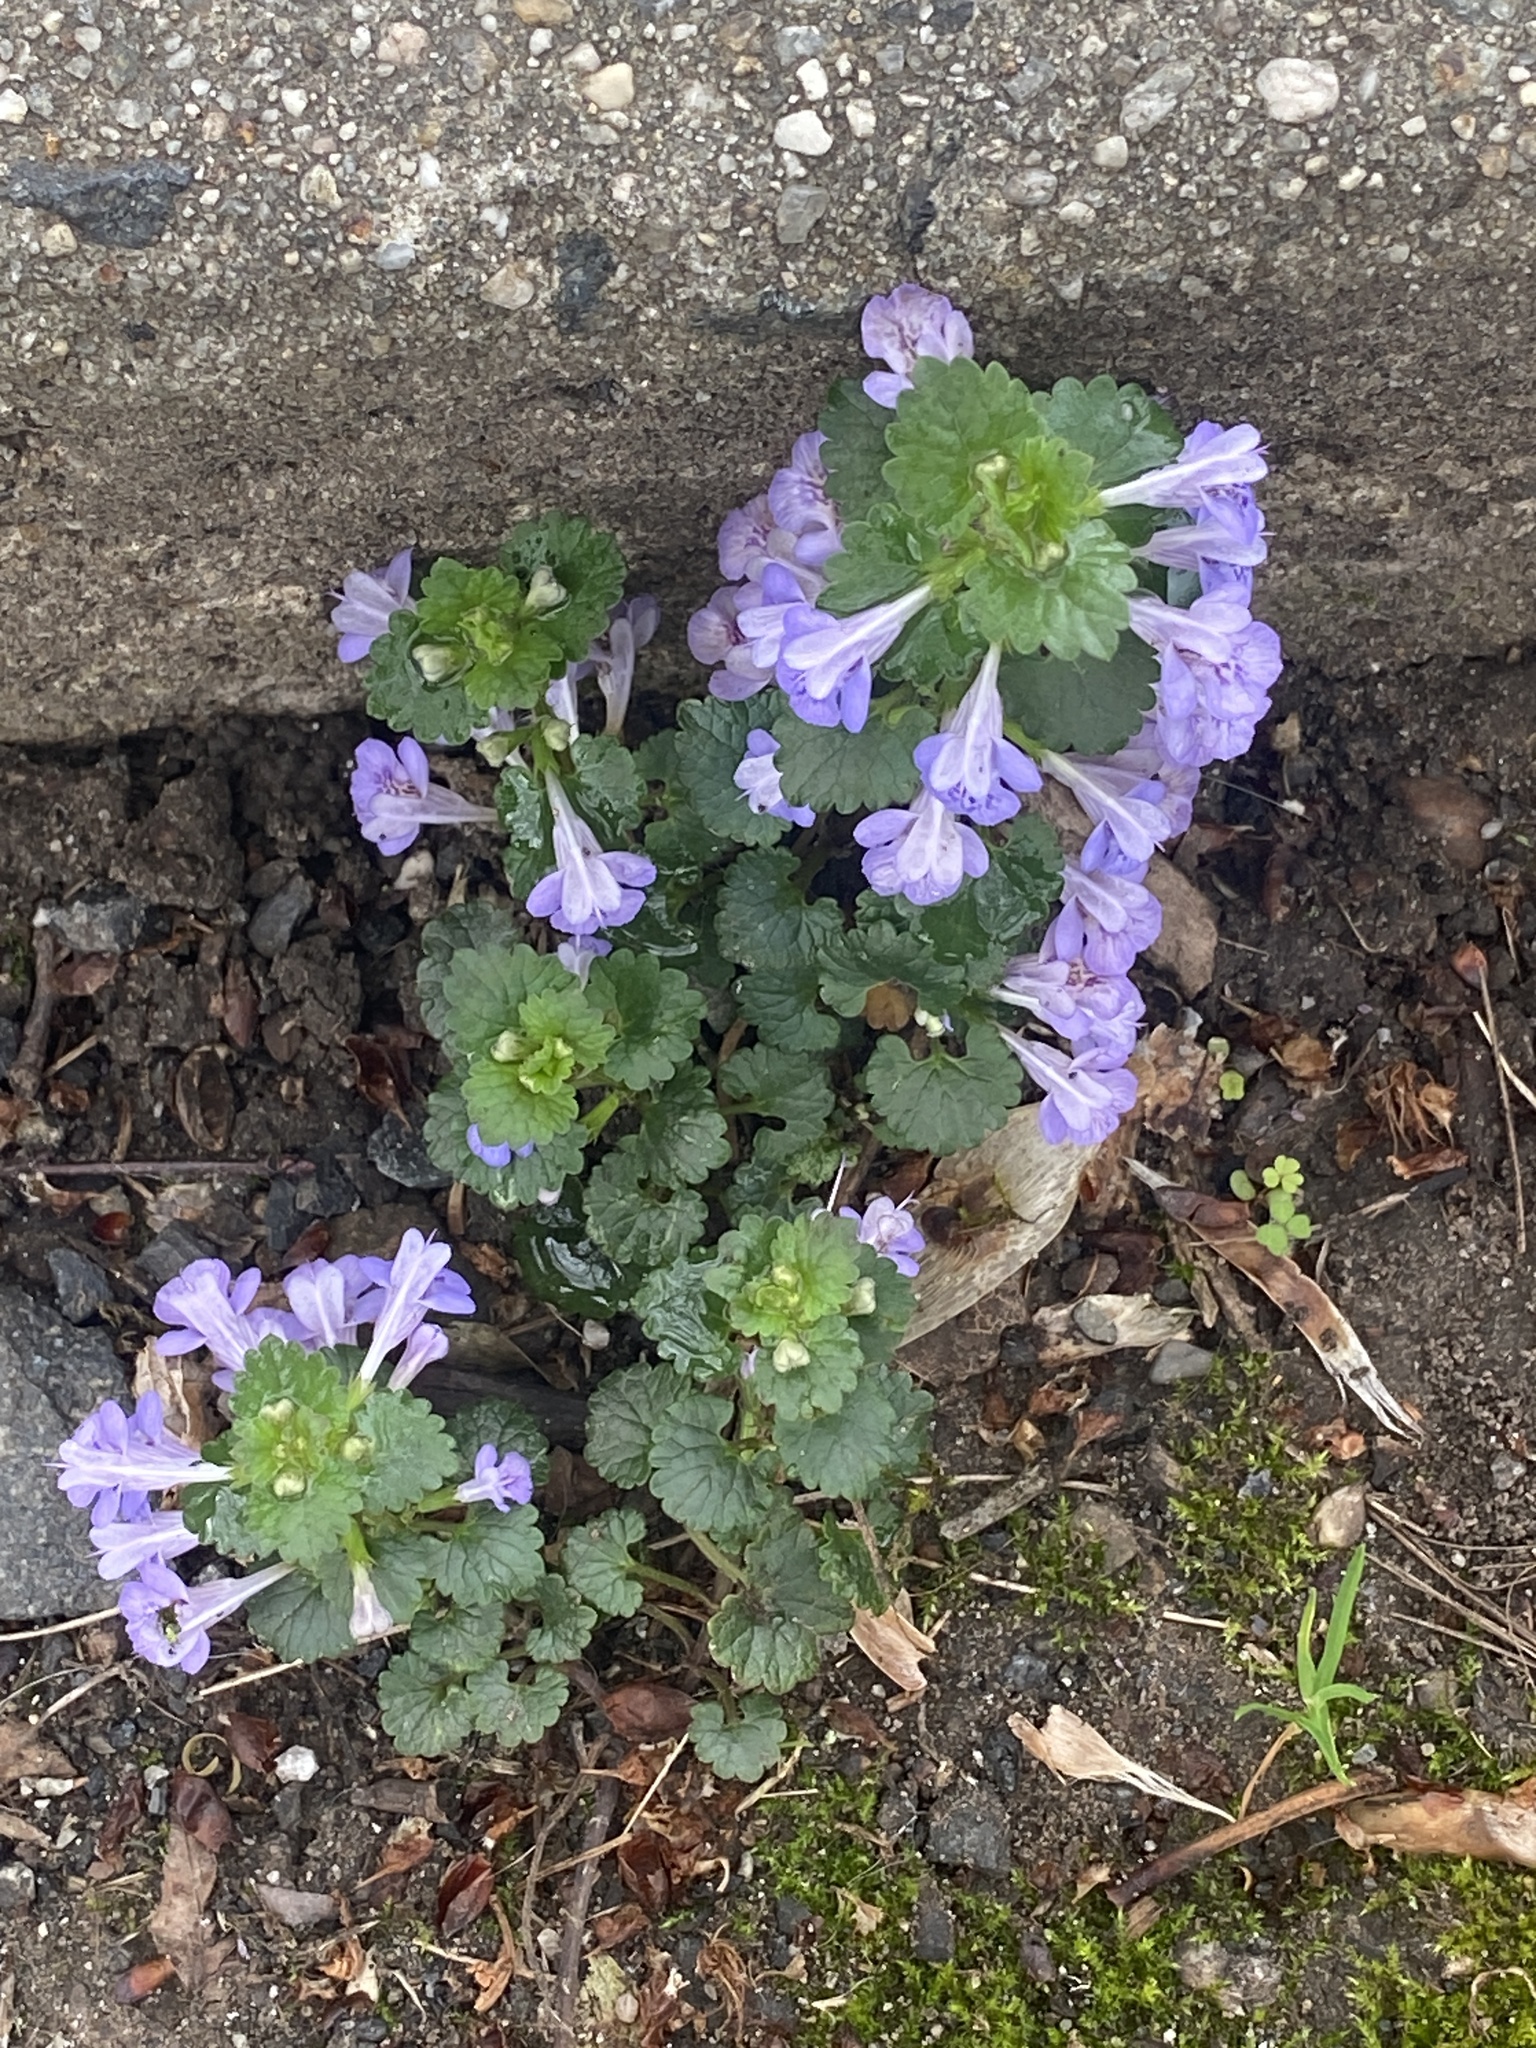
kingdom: Plantae
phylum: Tracheophyta
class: Magnoliopsida
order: Lamiales
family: Lamiaceae
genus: Glechoma
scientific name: Glechoma hederacea
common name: Ground ivy
